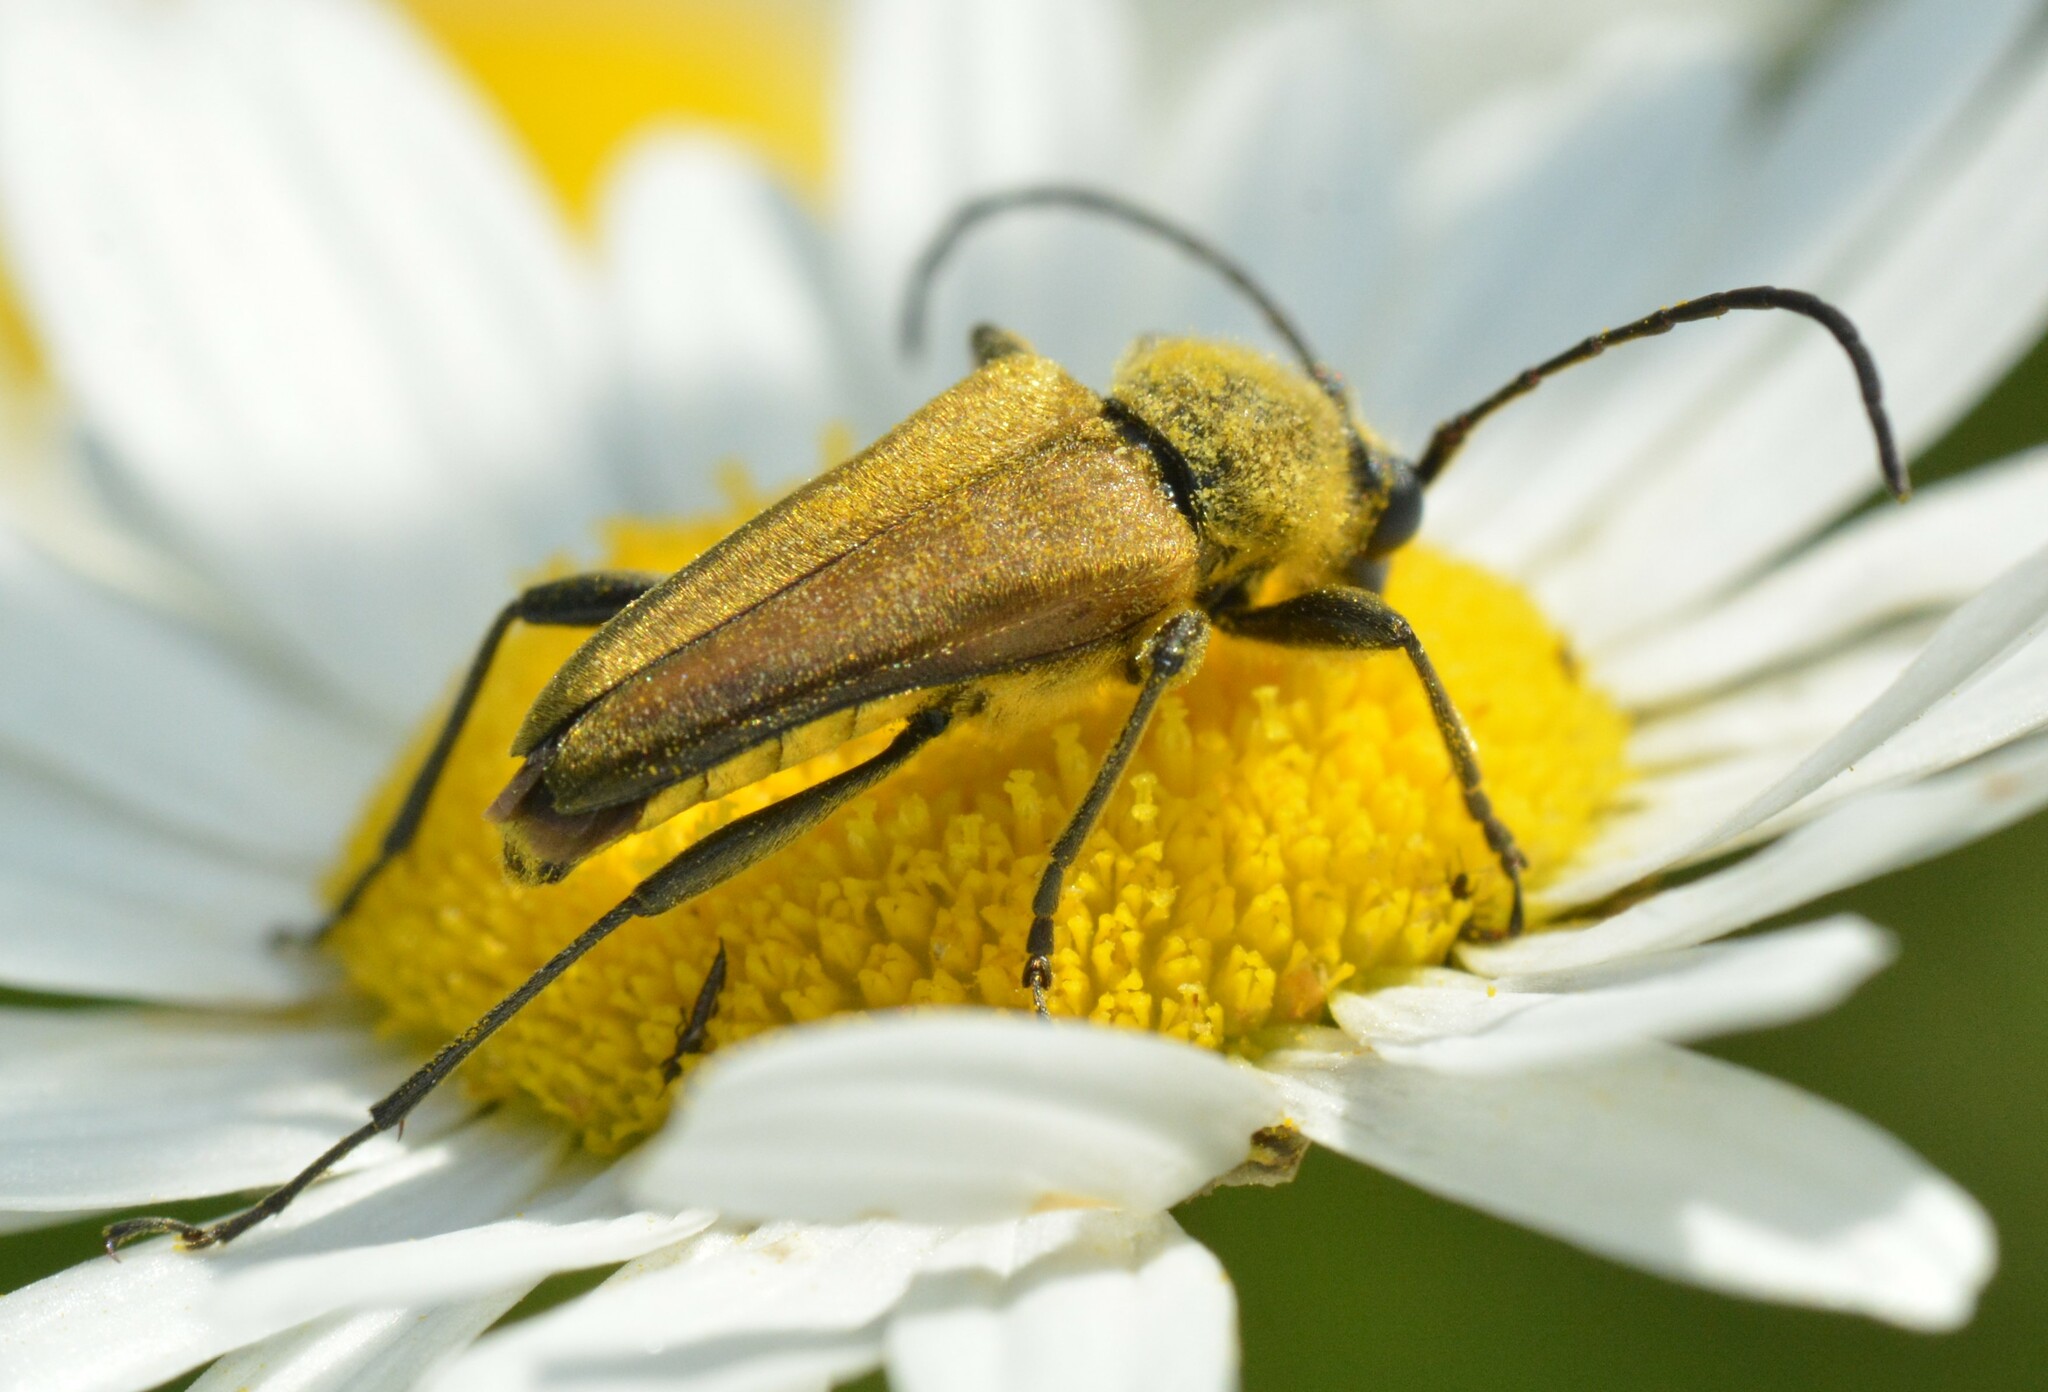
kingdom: Animalia
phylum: Arthropoda
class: Insecta
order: Coleoptera
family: Cerambycidae
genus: Cosmosalia
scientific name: Cosmosalia chrysocoma
